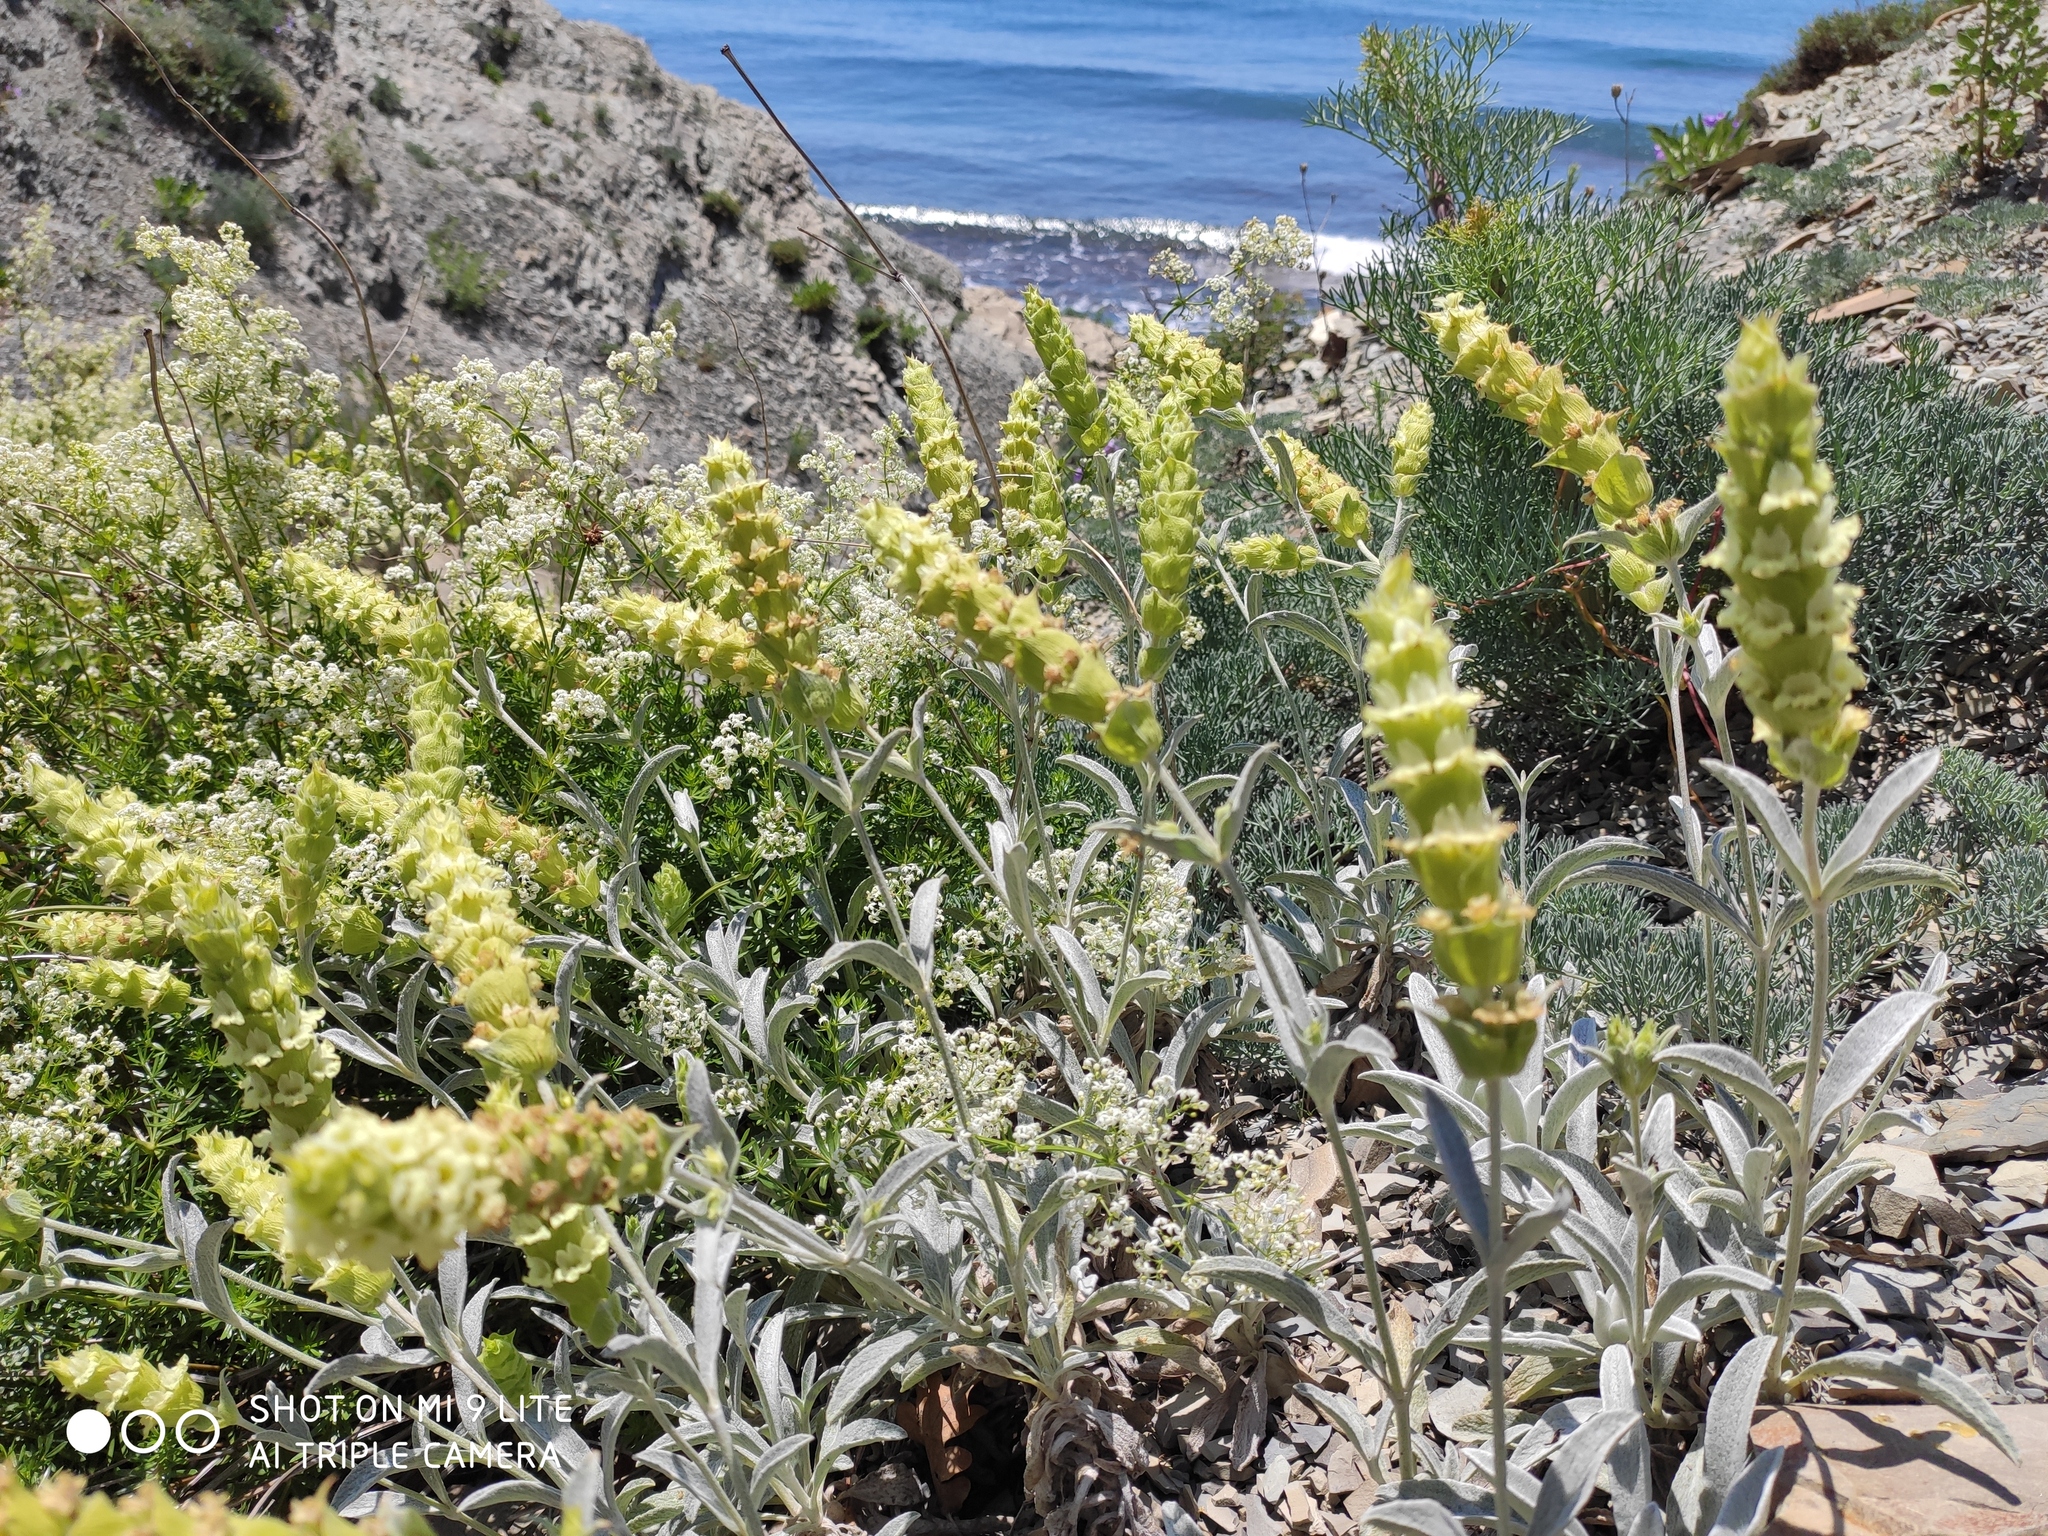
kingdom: Plantae
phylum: Tracheophyta
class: Magnoliopsida
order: Lamiales
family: Lamiaceae
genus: Sideritis
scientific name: Sideritis euxina
